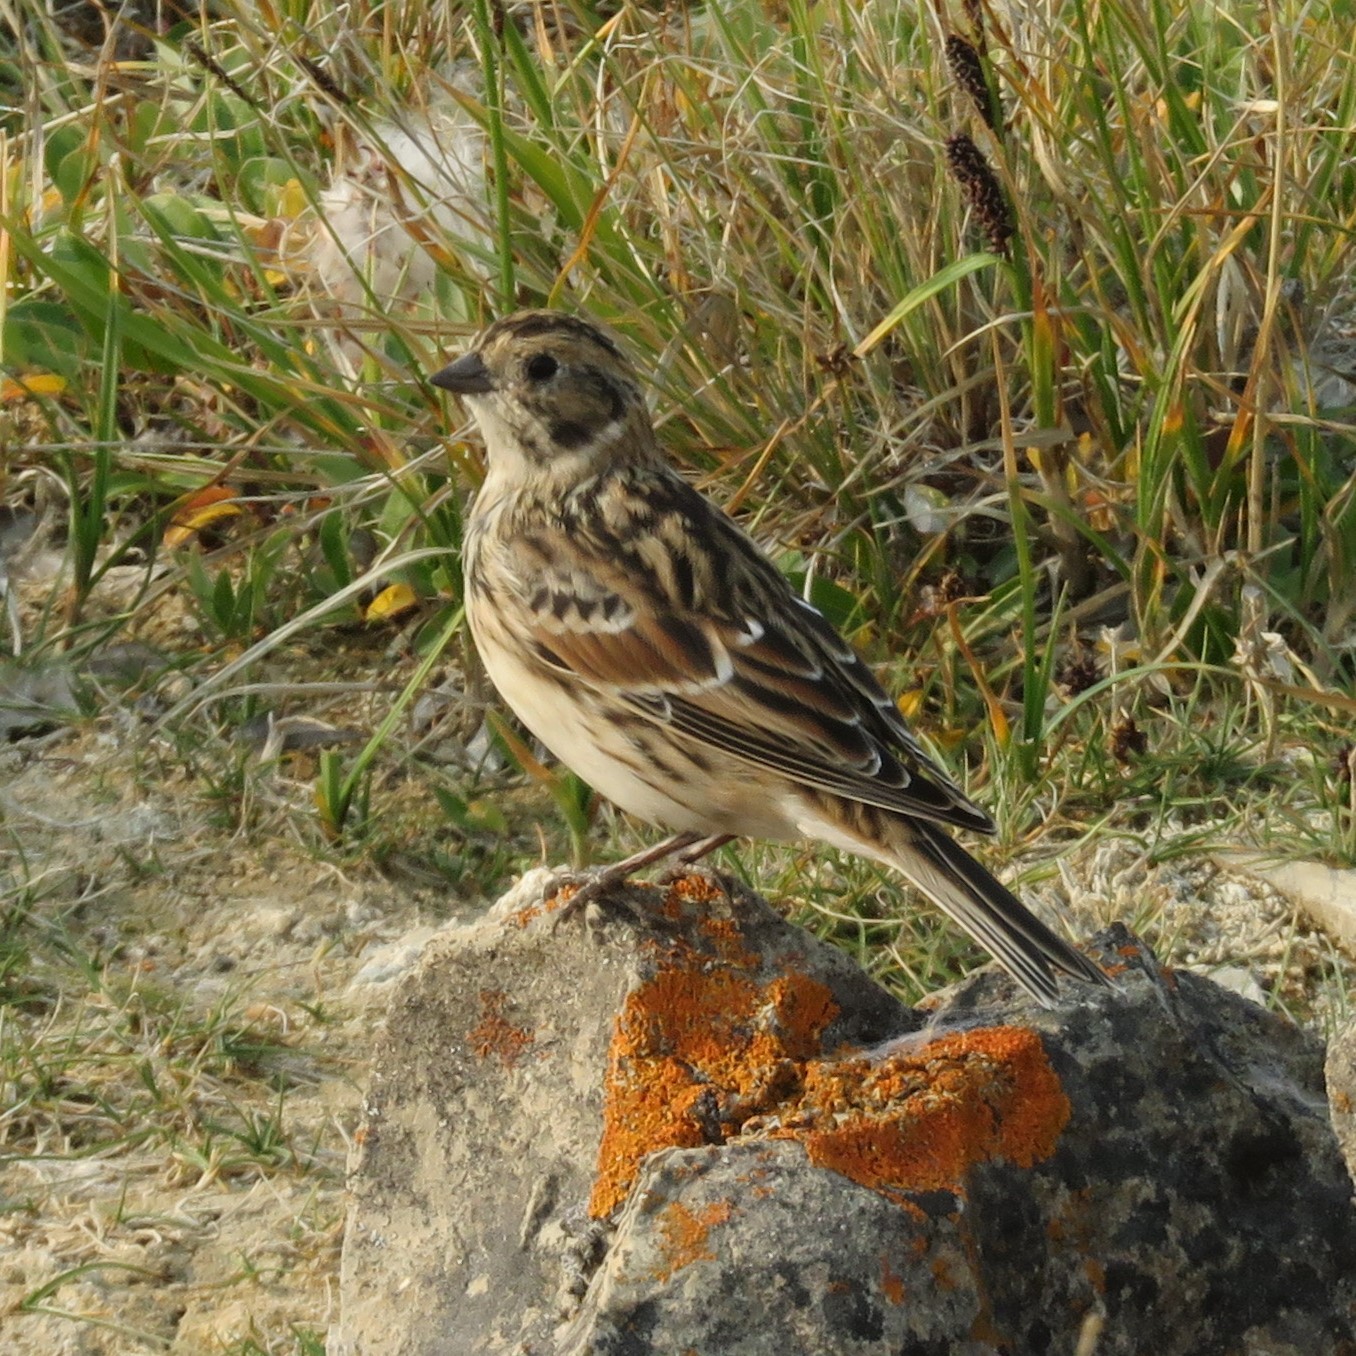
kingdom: Animalia
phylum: Chordata
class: Aves
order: Passeriformes
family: Calcariidae
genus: Calcarius
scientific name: Calcarius lapponicus
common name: Lapland longspur
